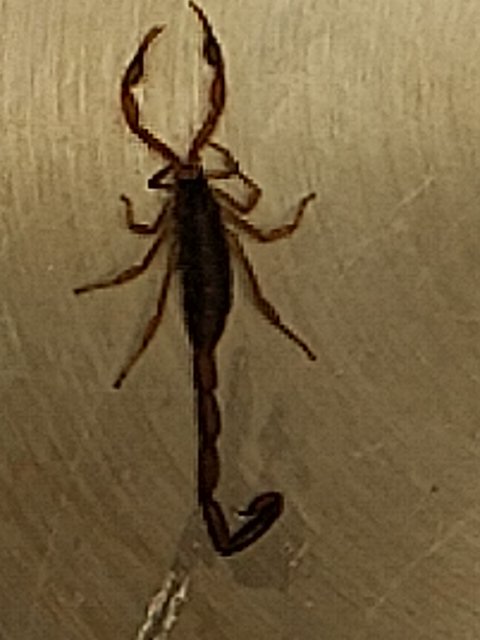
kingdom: Animalia
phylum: Arthropoda
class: Arachnida
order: Scorpiones
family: Buthidae
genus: Centruroides
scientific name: Centruroides vittatus
